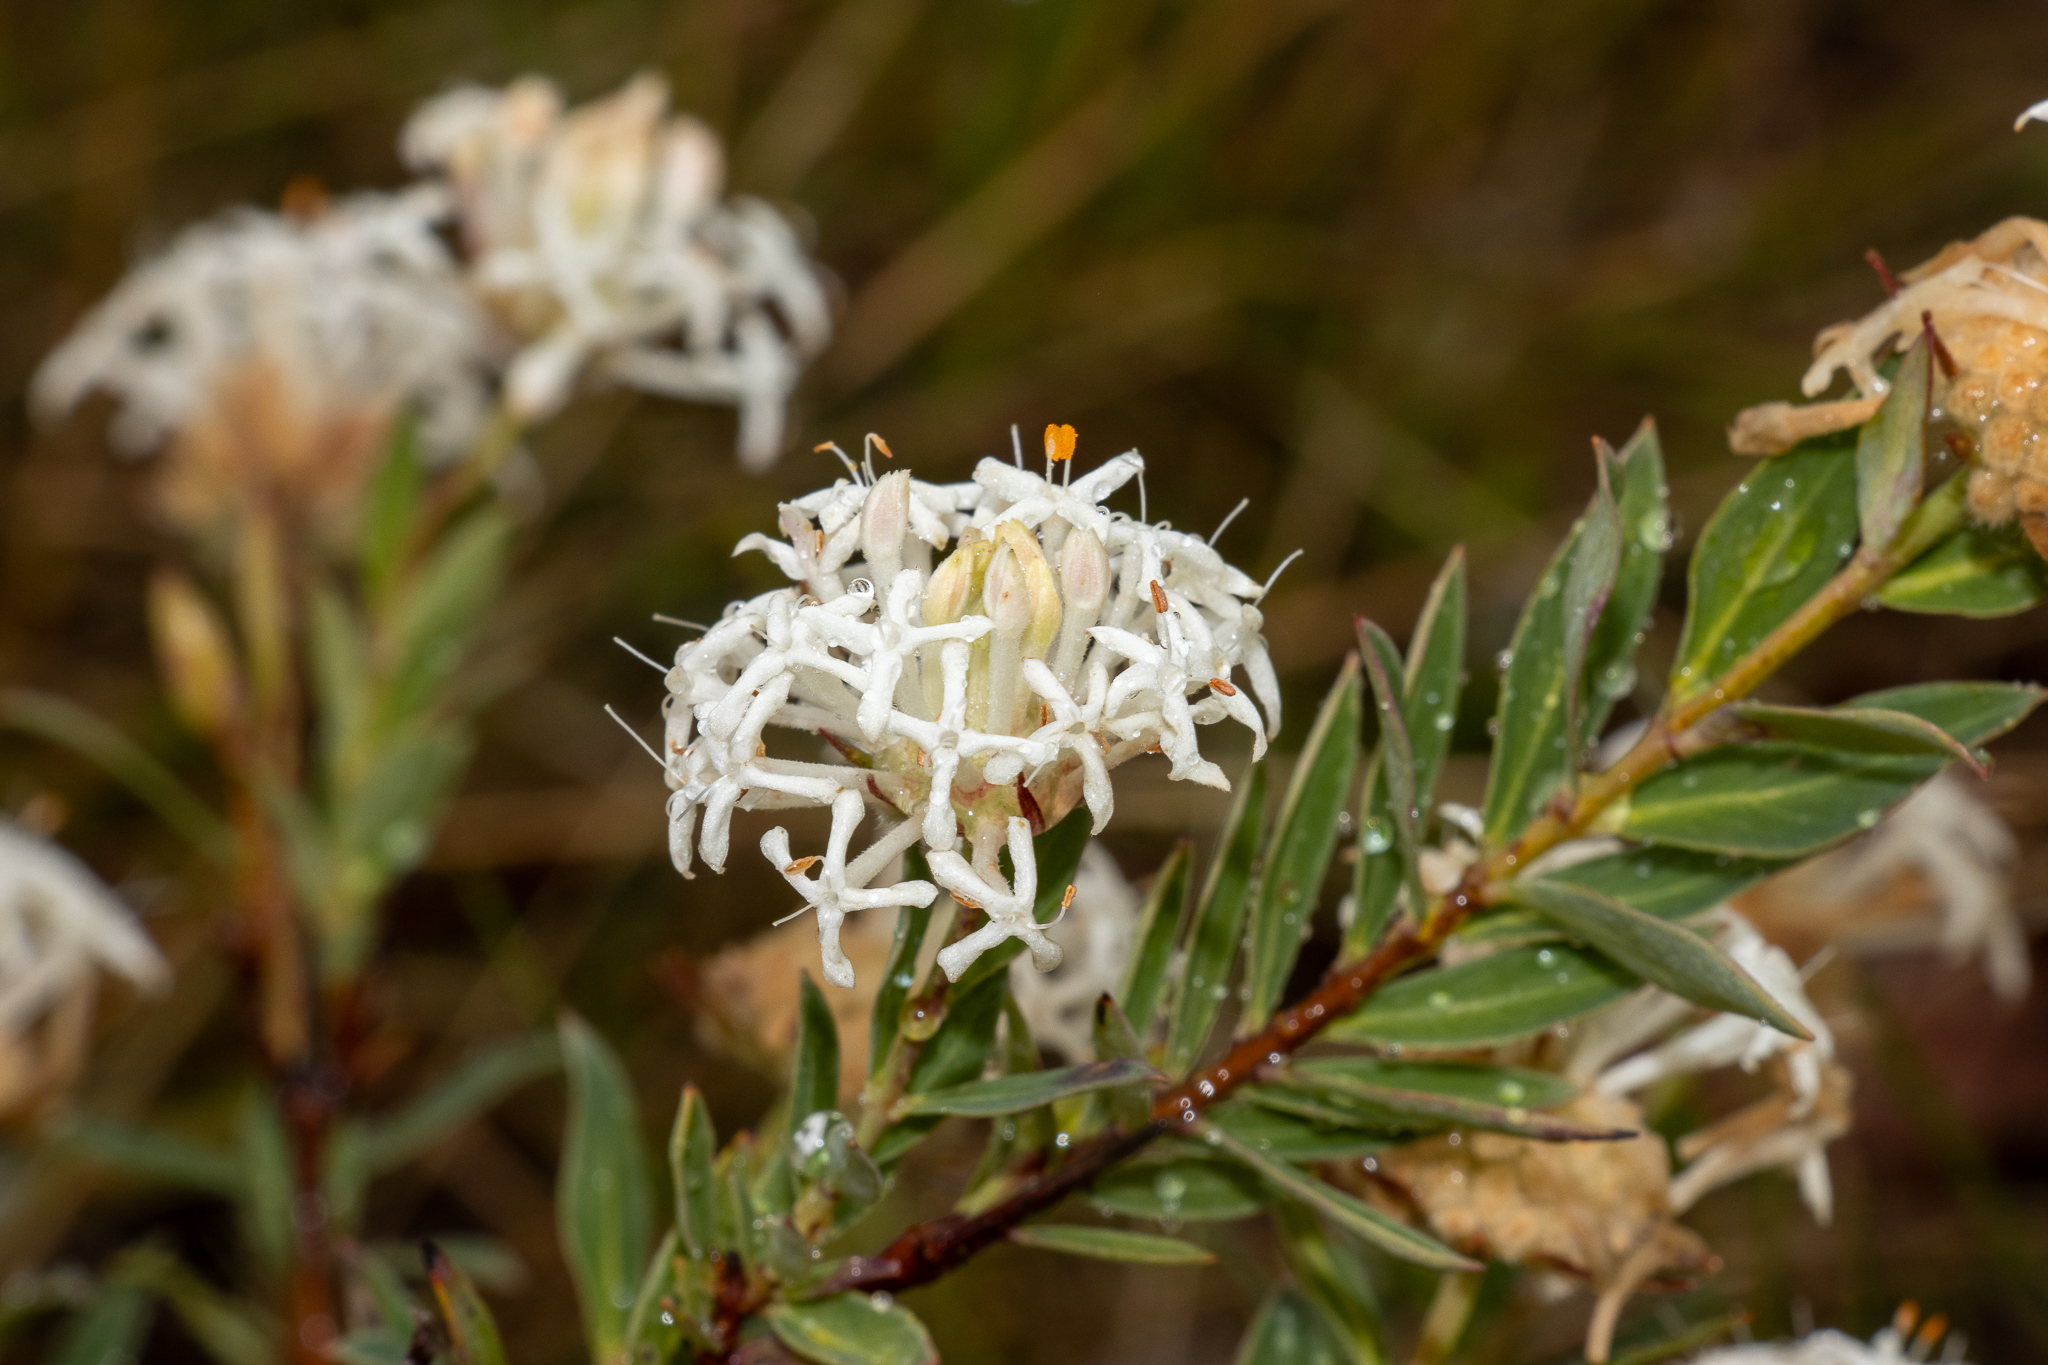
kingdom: Plantae
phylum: Tracheophyta
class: Magnoliopsida
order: Malvales
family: Thymelaeaceae
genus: Pimelea
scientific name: Pimelea treyvaudii
